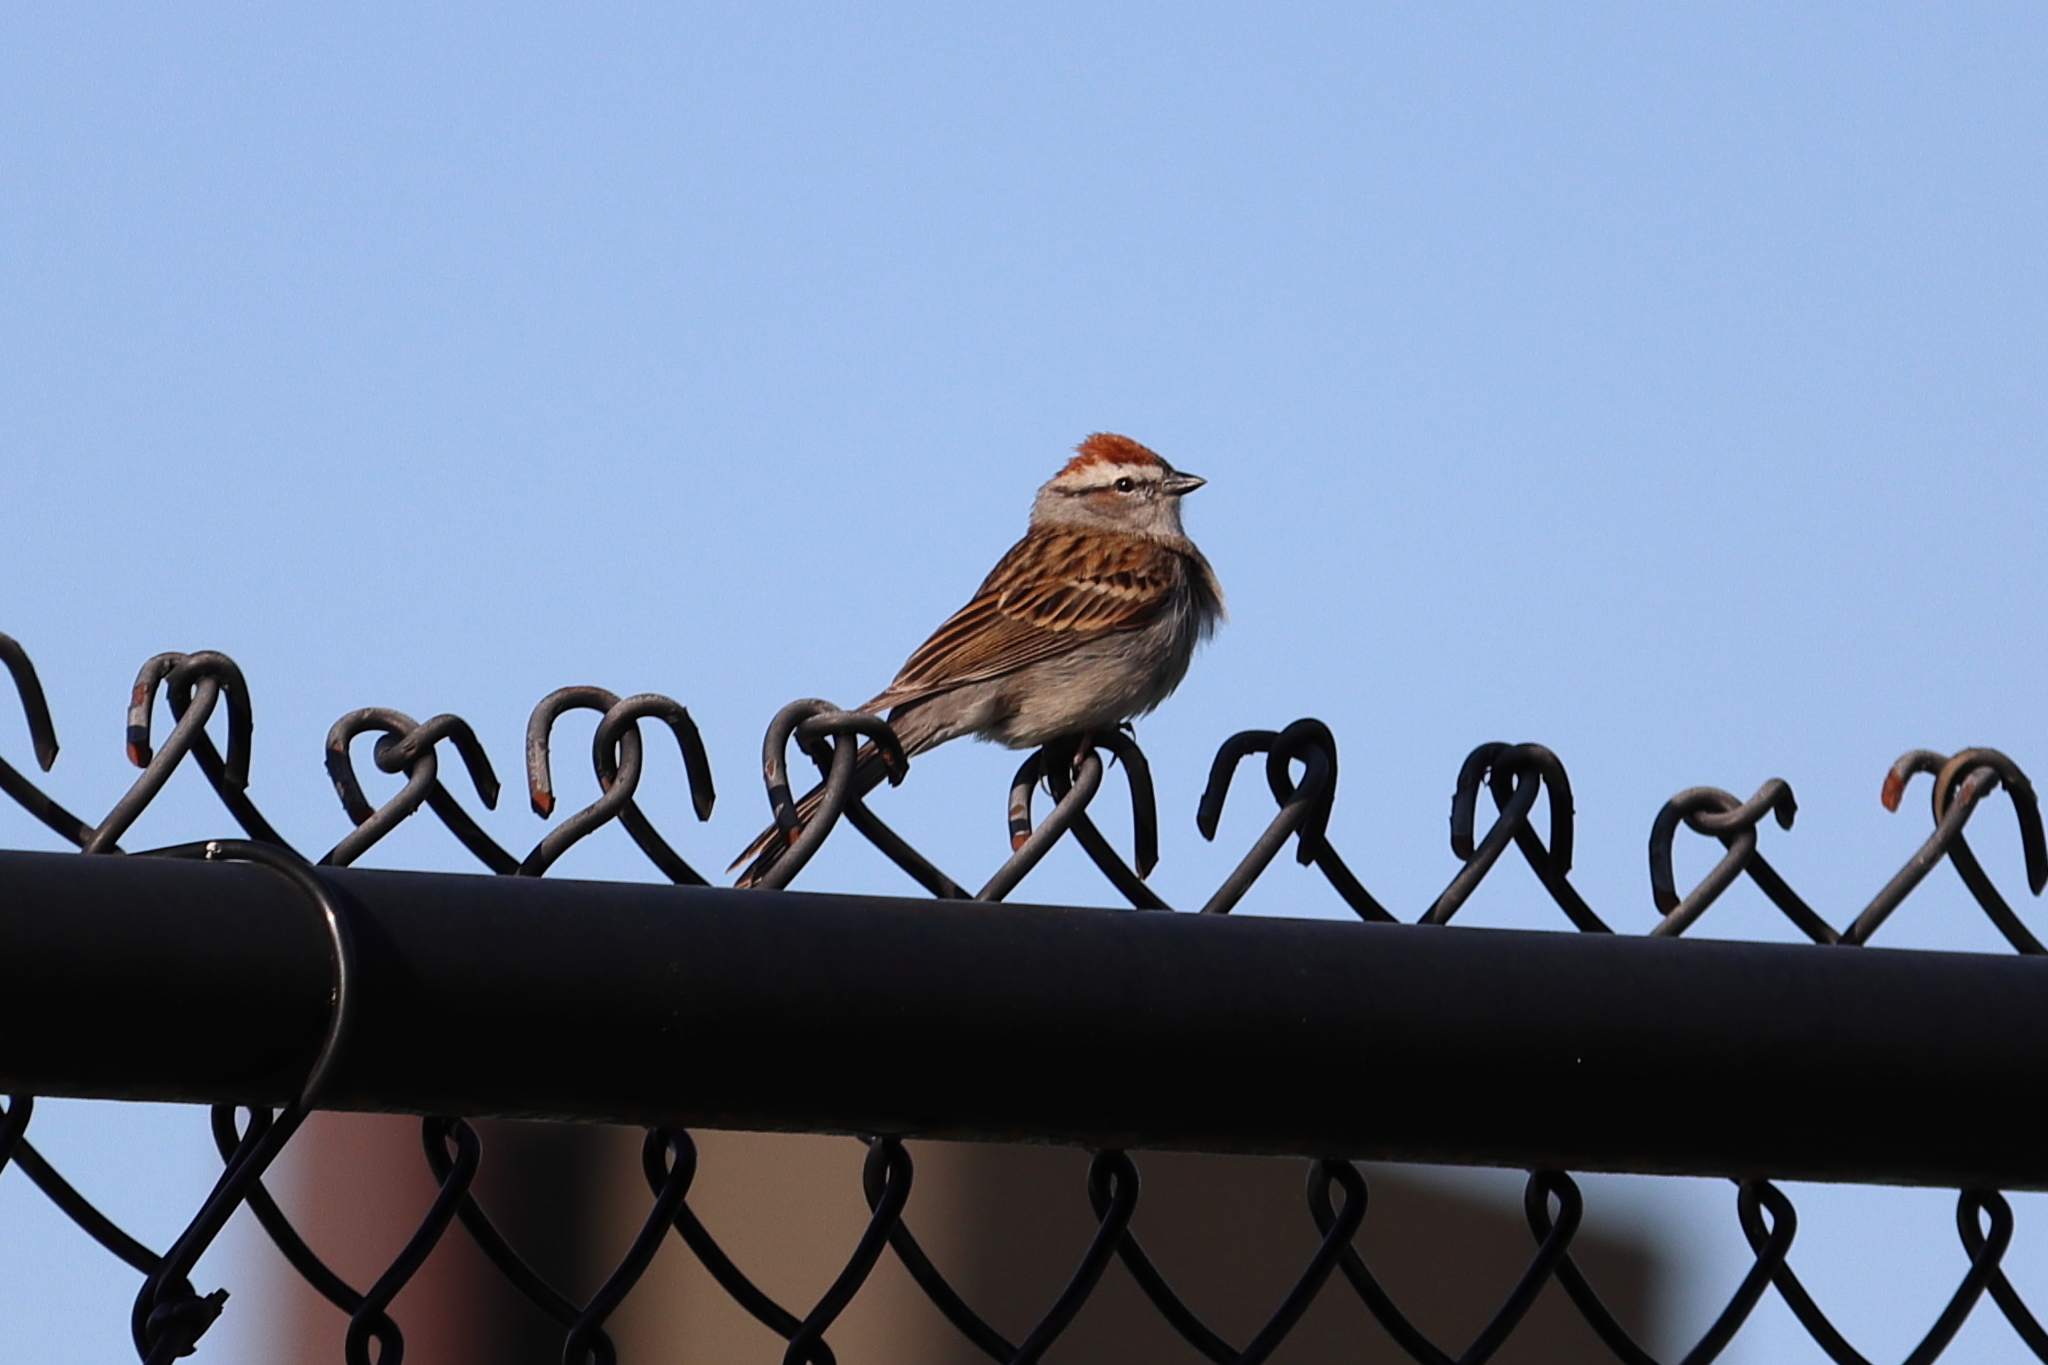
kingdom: Animalia
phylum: Chordata
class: Aves
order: Passeriformes
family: Passerellidae
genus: Spizella
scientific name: Spizella passerina
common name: Chipping sparrow
